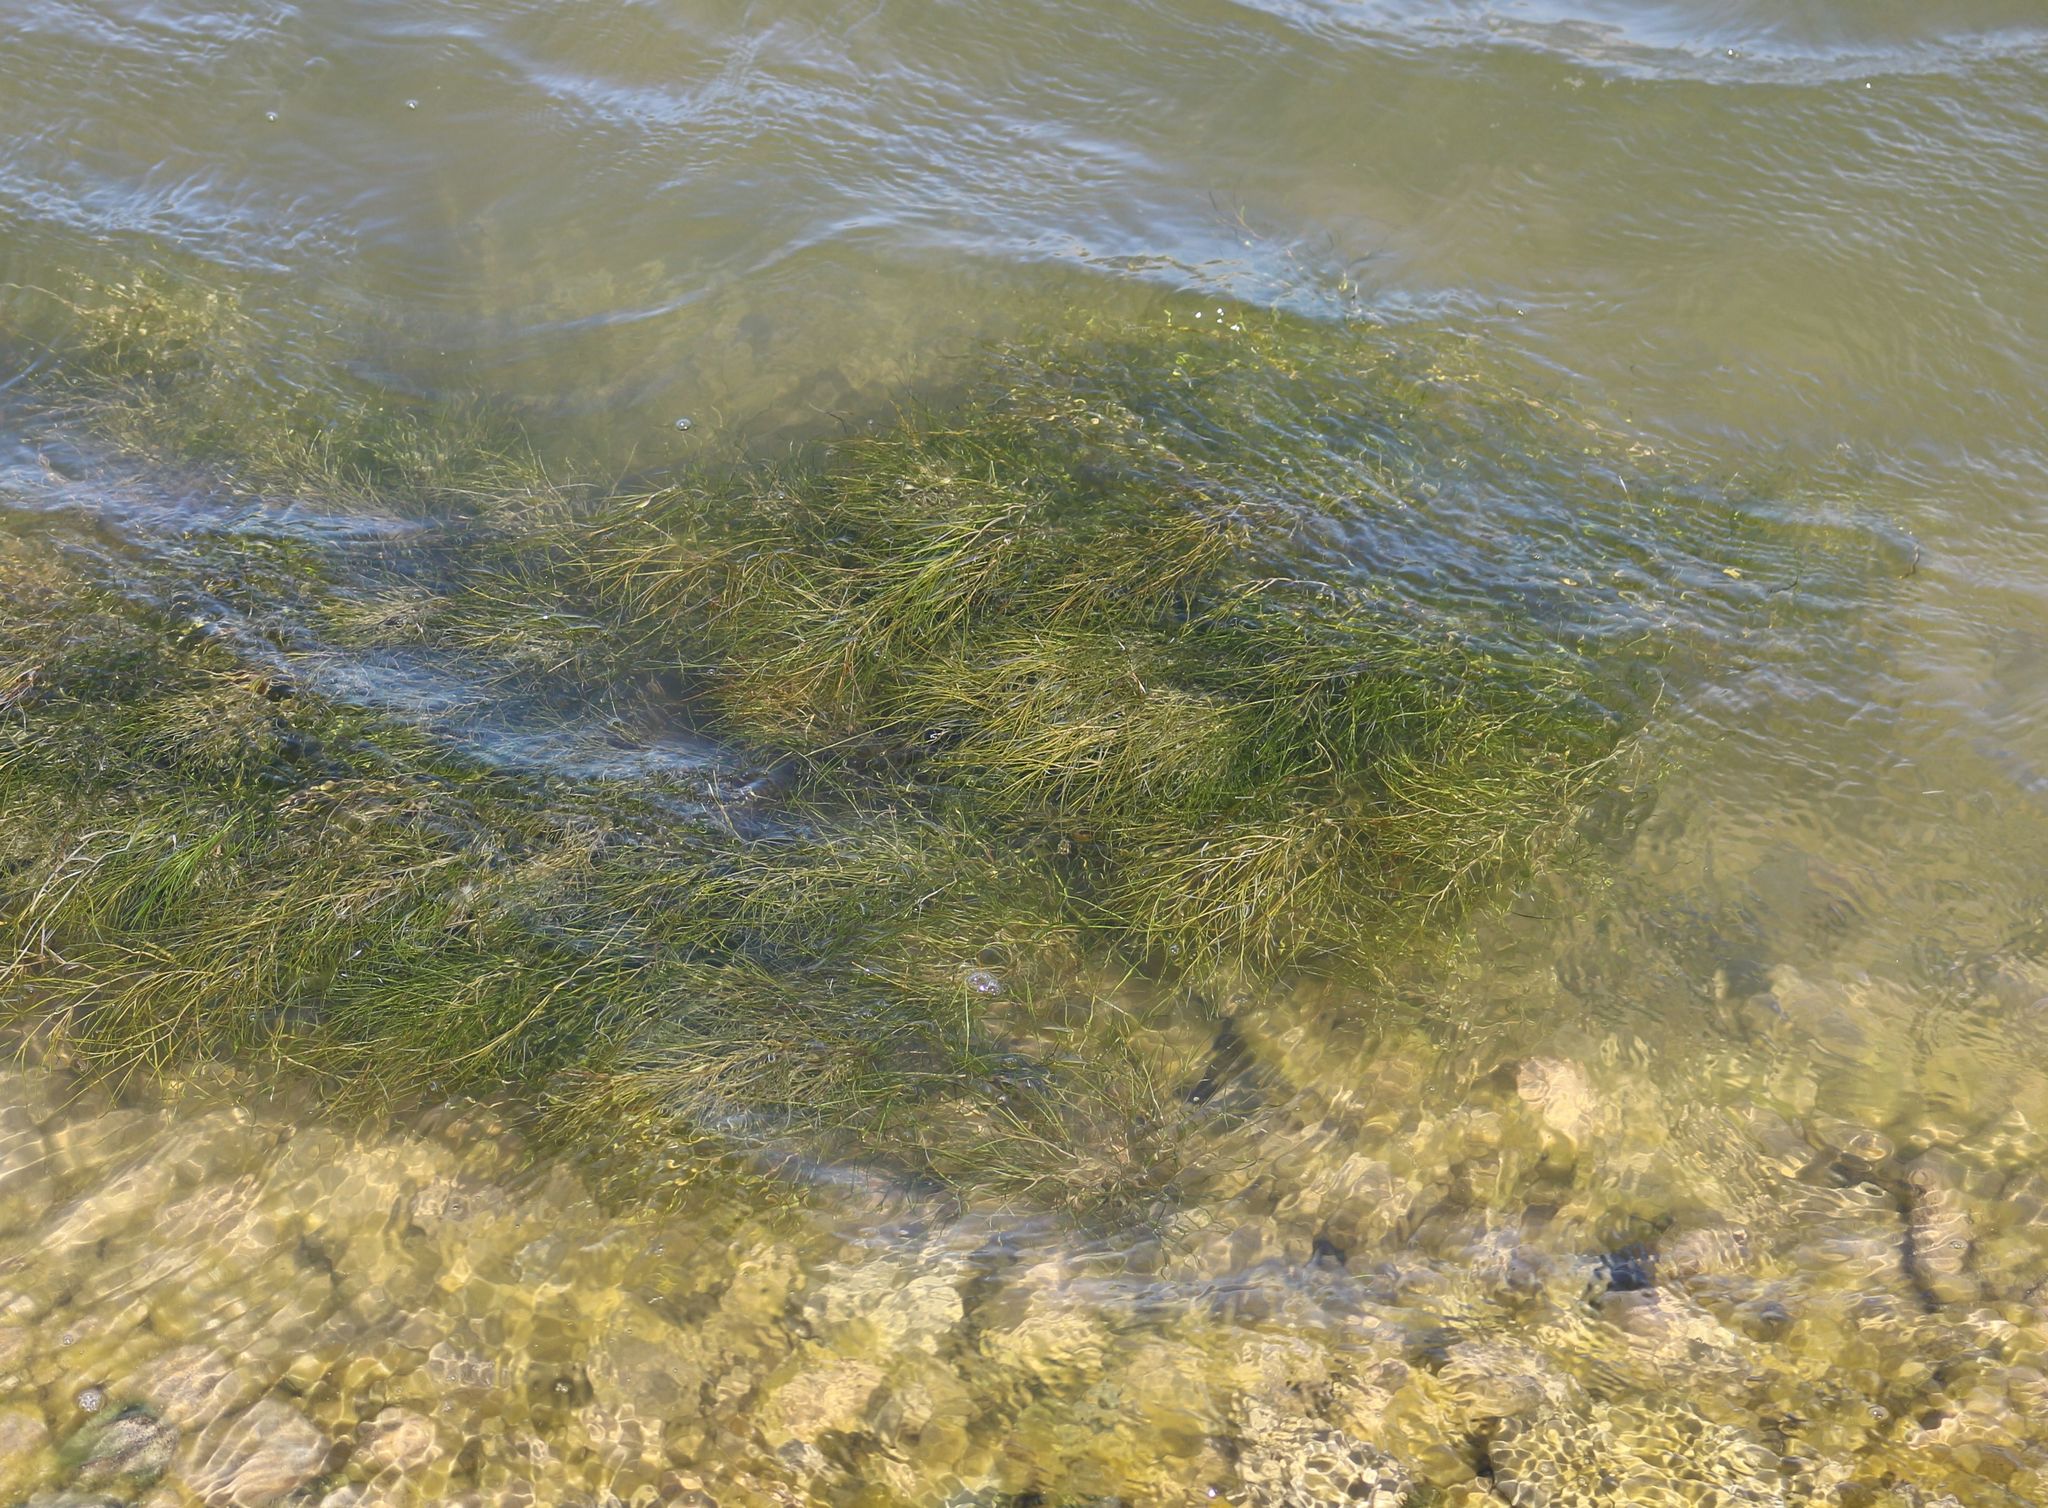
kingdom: Plantae
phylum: Tracheophyta
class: Liliopsida
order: Alismatales
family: Potamogetonaceae
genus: Stuckenia
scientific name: Stuckenia pectinata
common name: Sago pondweed
